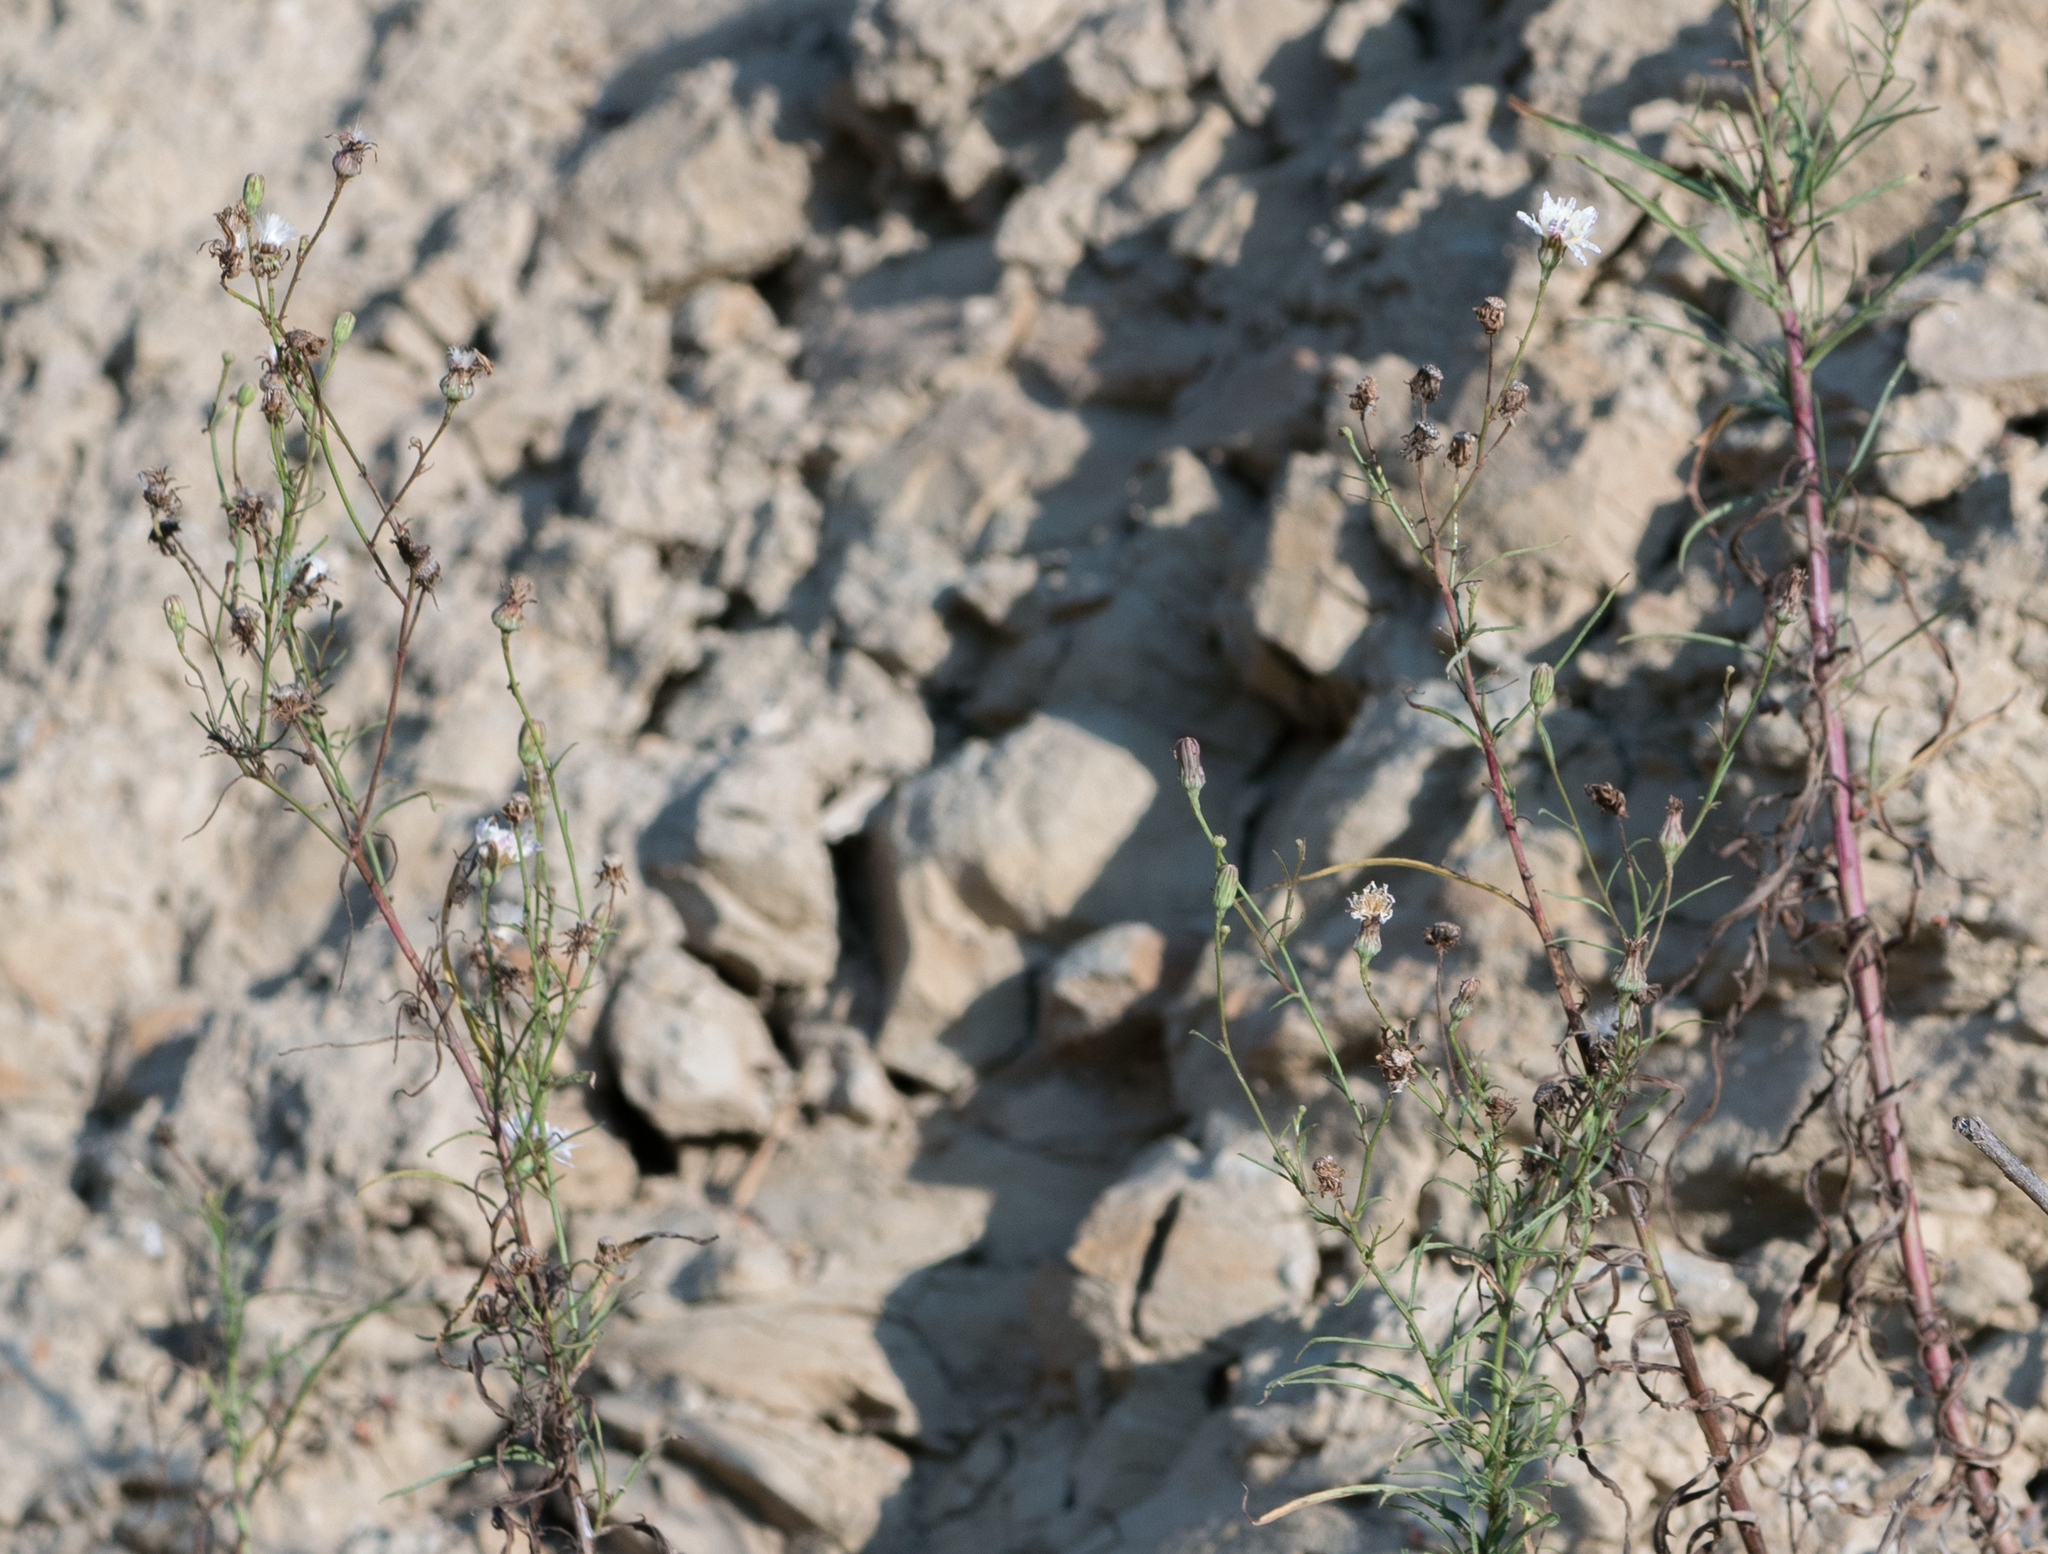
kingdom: Plantae
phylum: Tracheophyta
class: Magnoliopsida
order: Asterales
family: Asteraceae
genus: Malacothrix
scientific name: Malacothrix saxatilis
